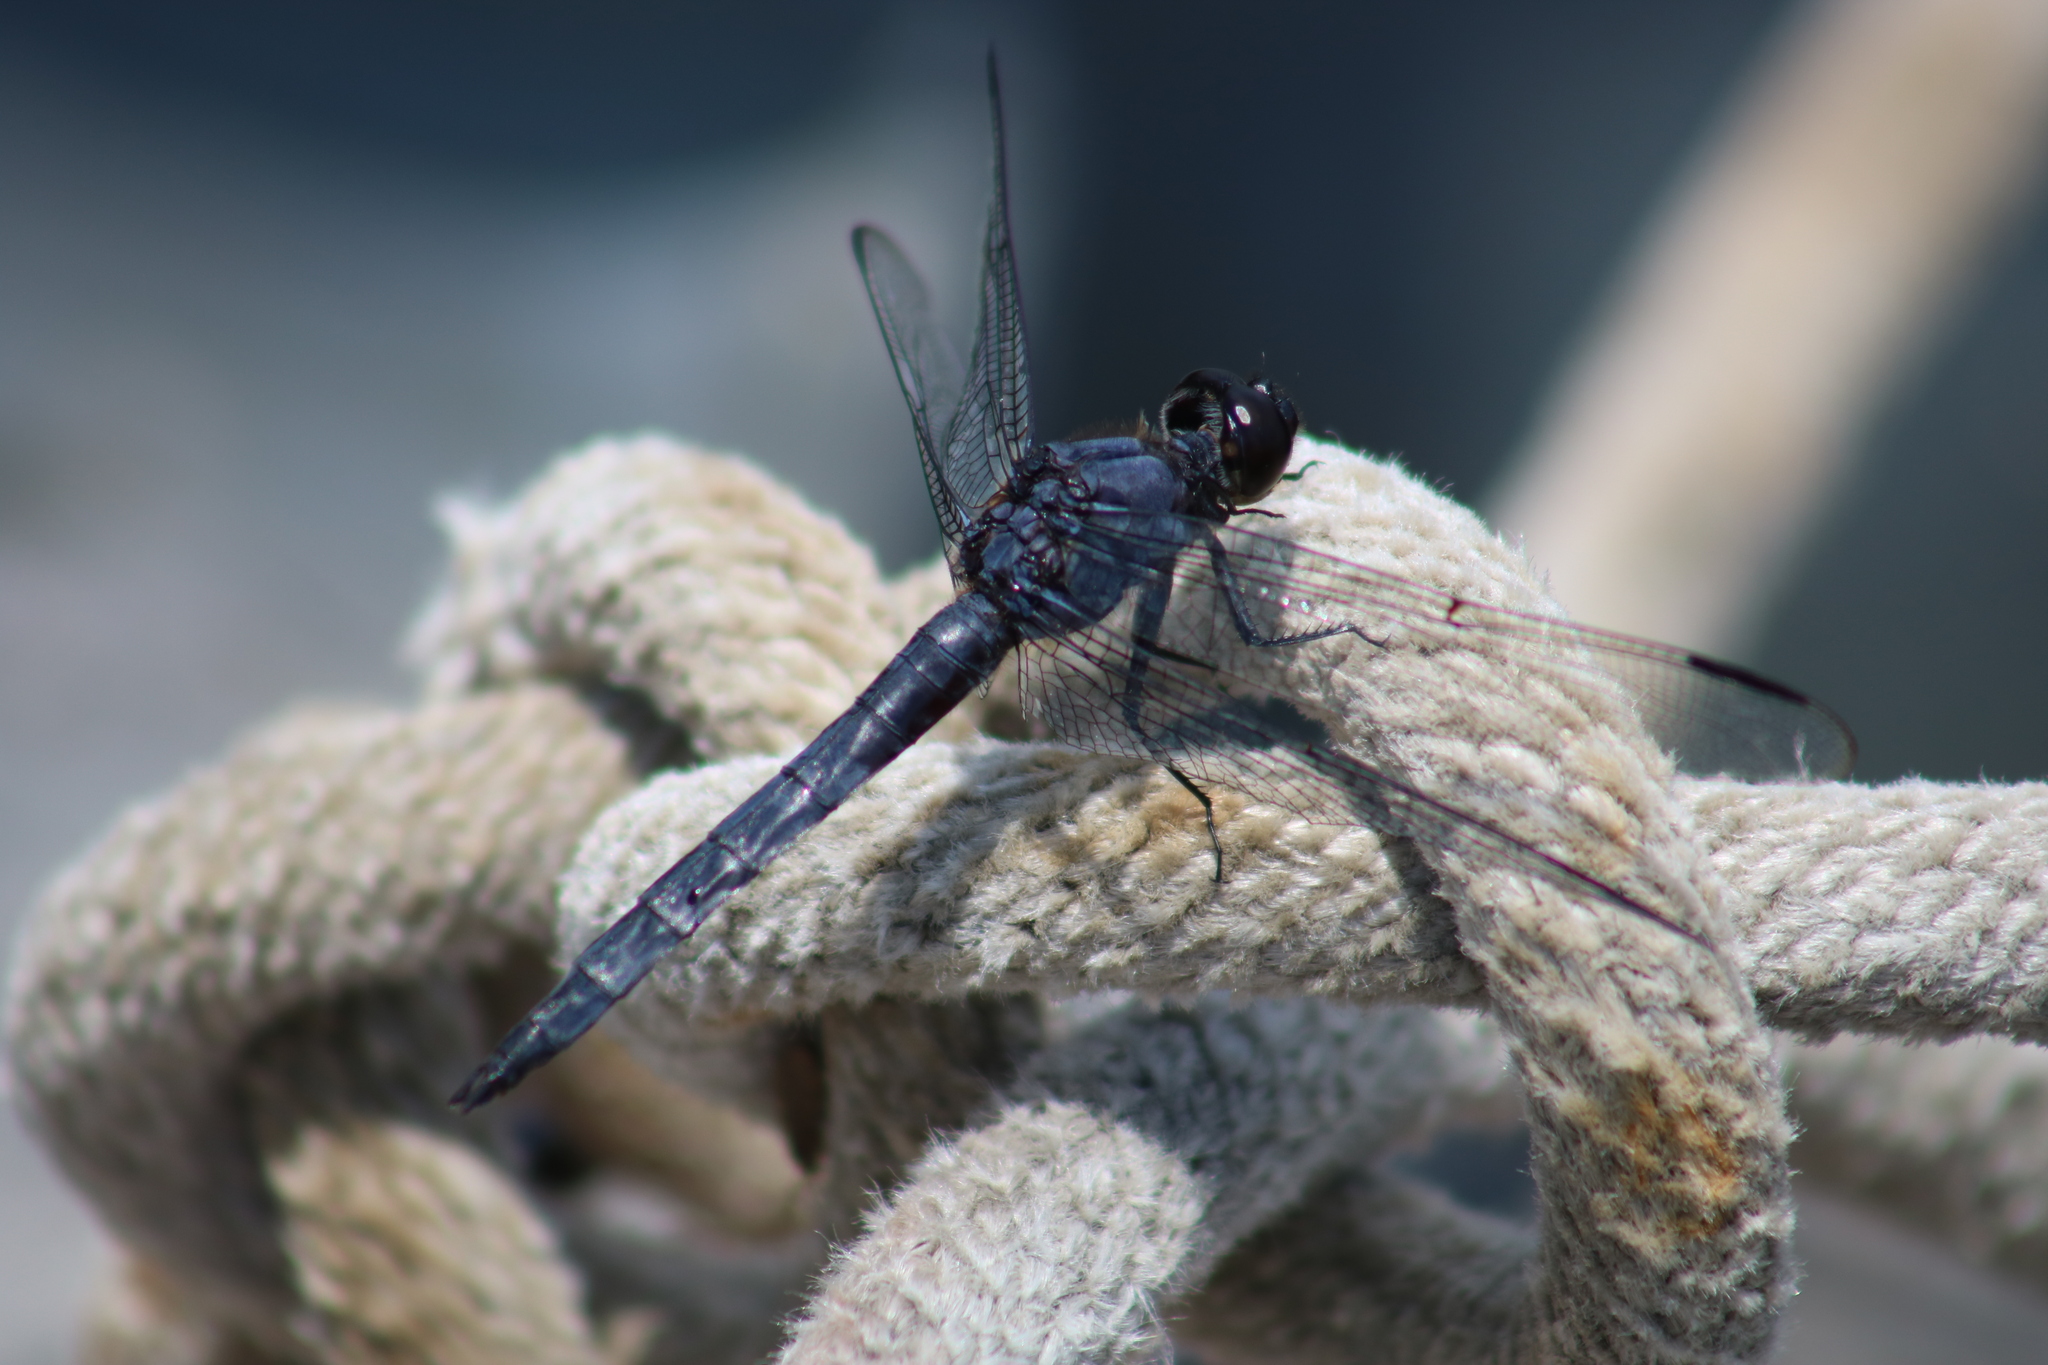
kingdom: Animalia
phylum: Arthropoda
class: Insecta
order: Odonata
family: Libellulidae
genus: Libellula
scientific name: Libellula incesta
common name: Slaty skimmer
